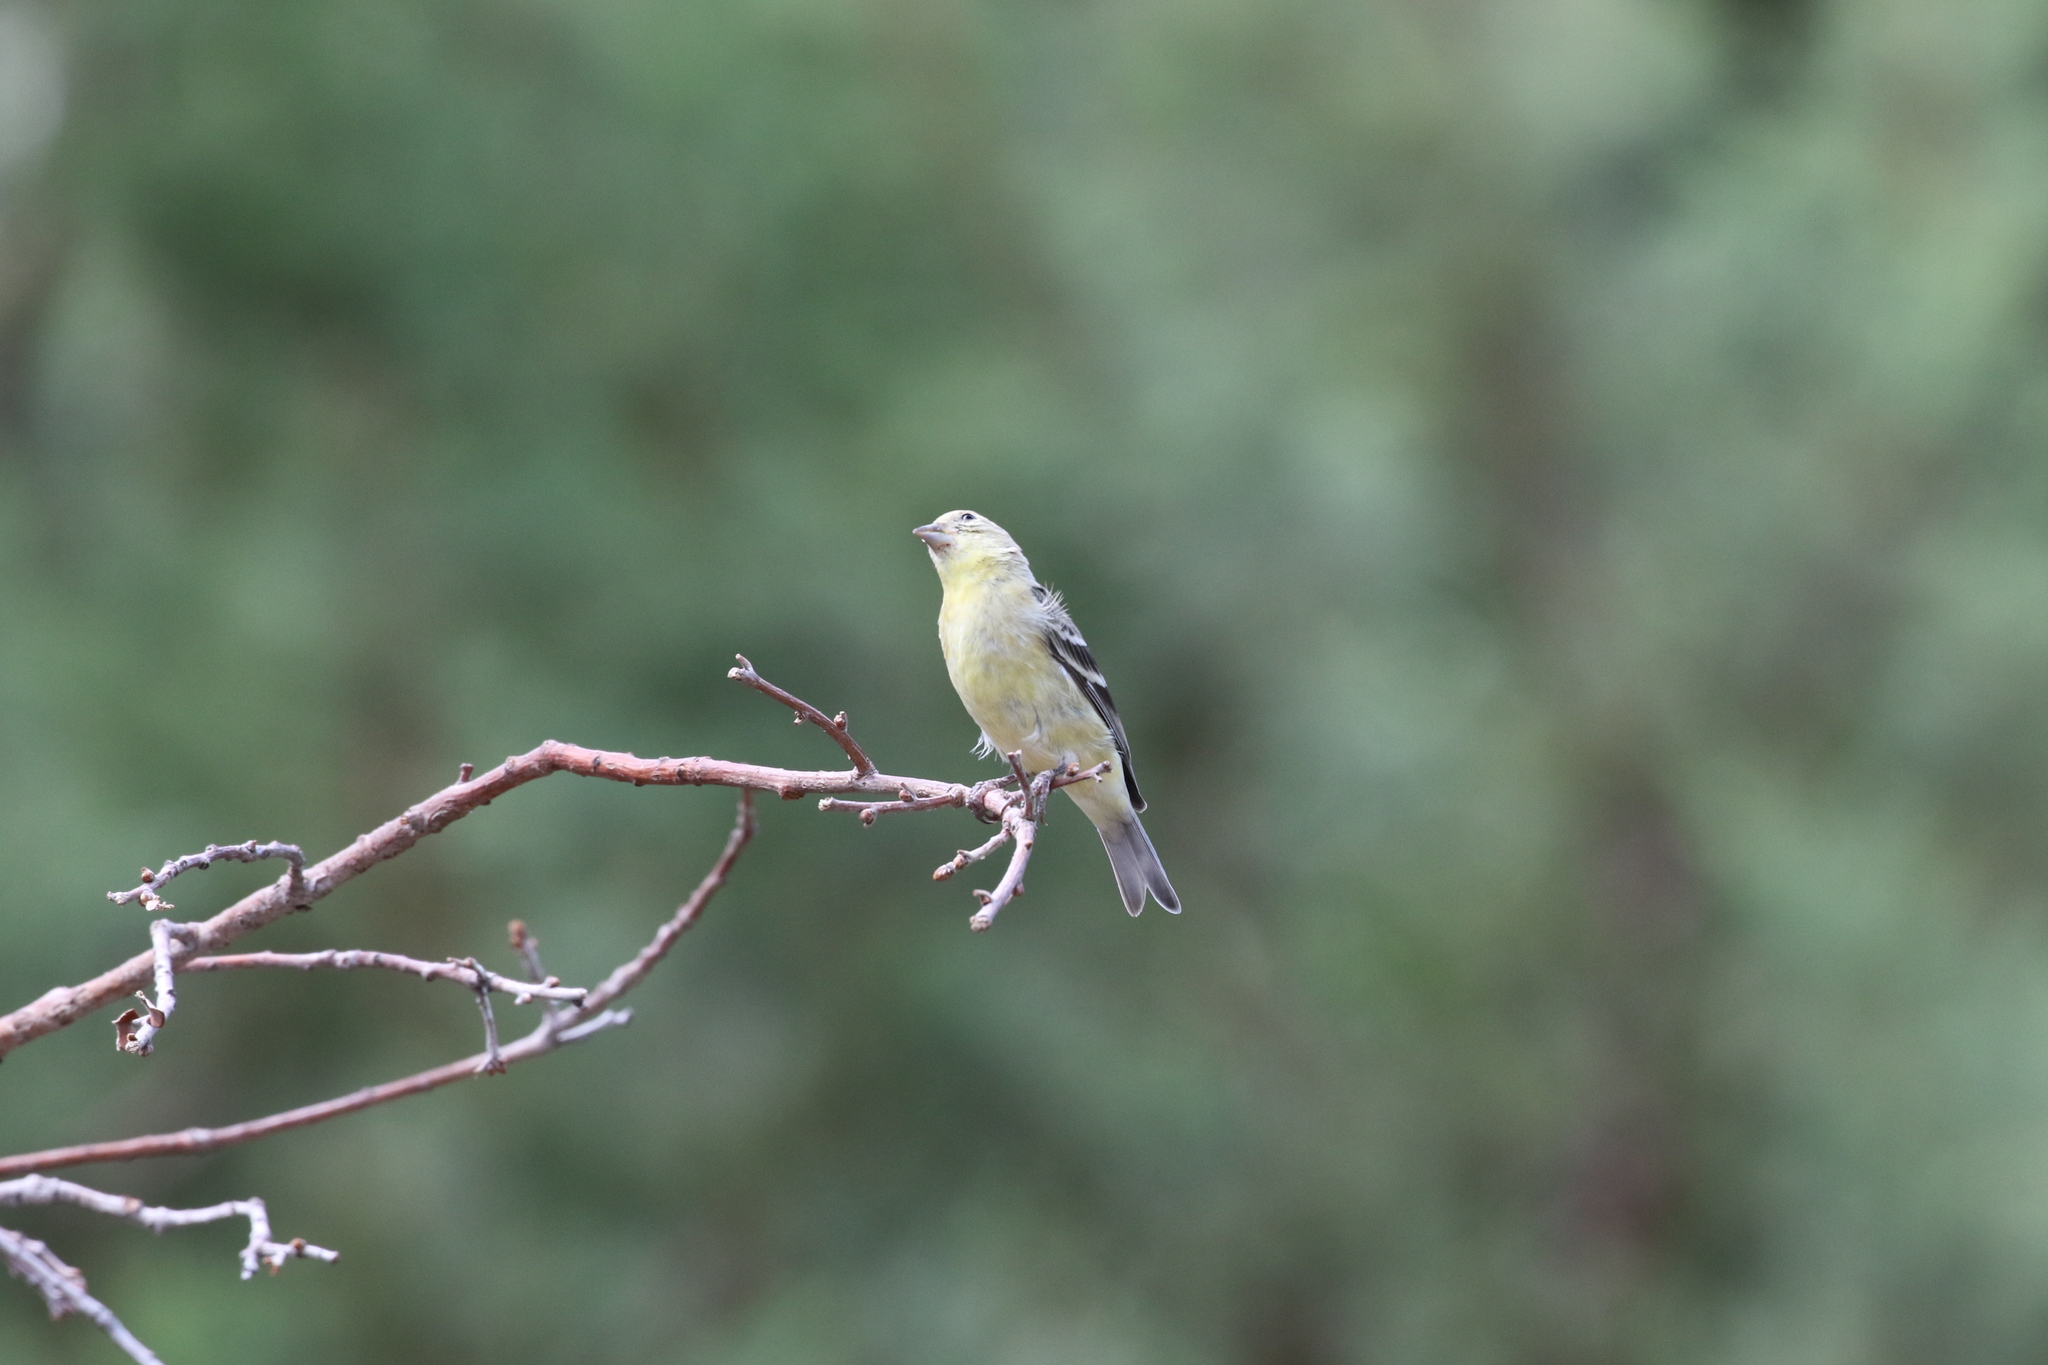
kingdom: Animalia
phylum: Chordata
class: Aves
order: Passeriformes
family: Cardinalidae
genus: Pheucticus
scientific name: Pheucticus melanocephalus
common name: Black-headed grosbeak
